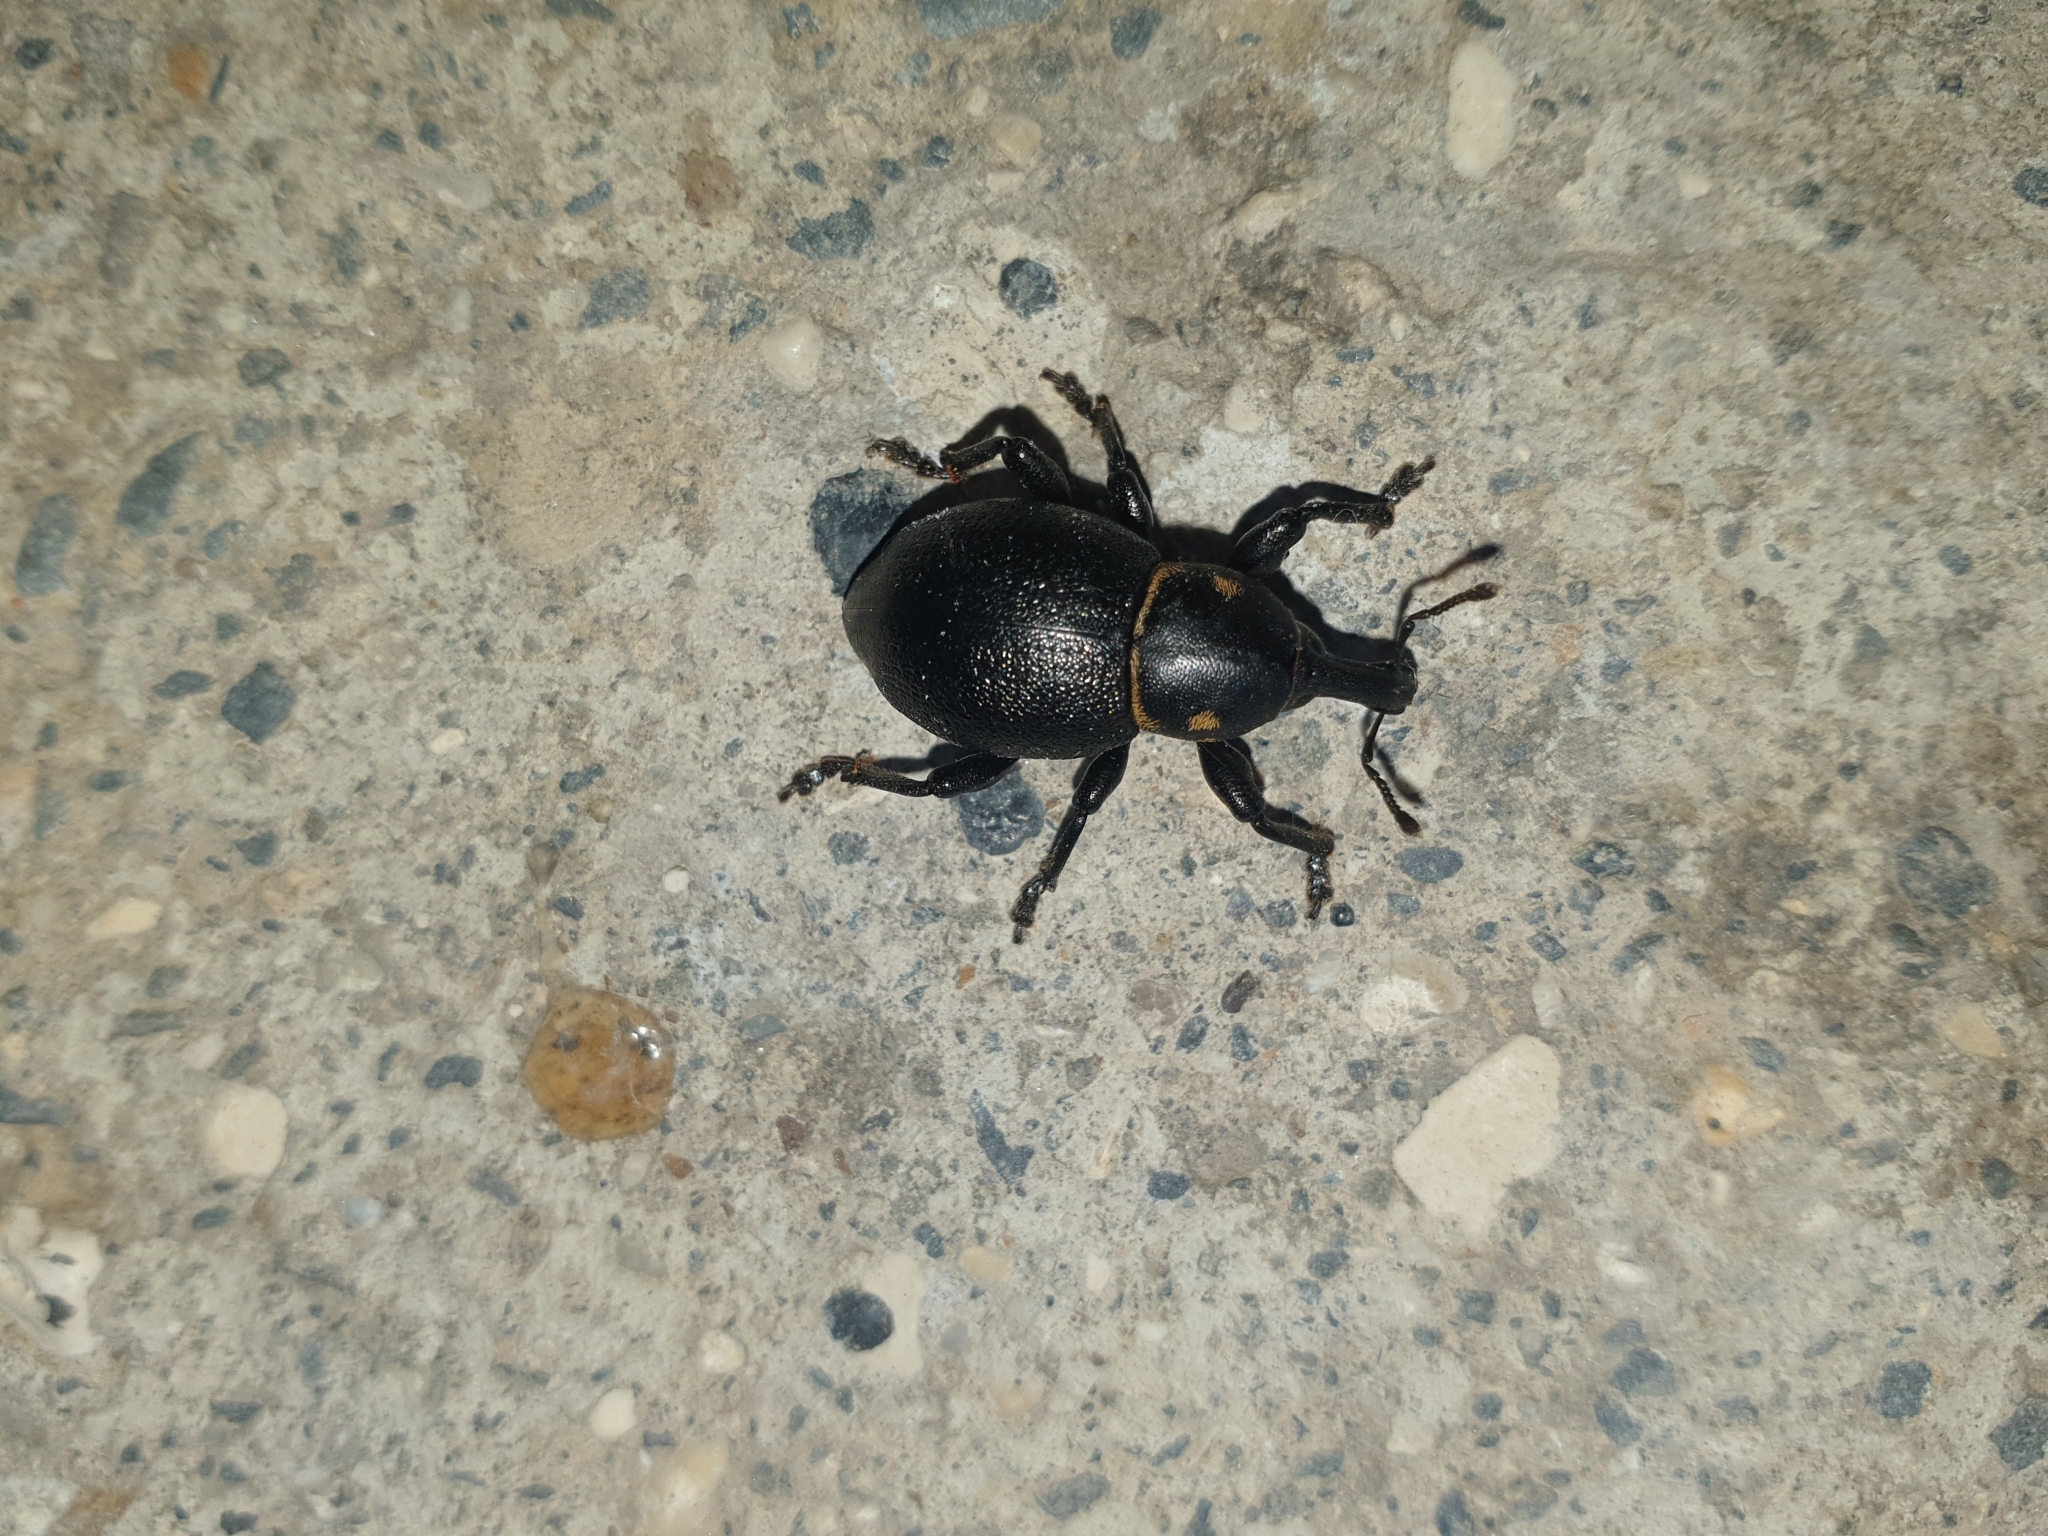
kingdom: Animalia
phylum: Arthropoda
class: Insecta
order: Coleoptera
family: Curculionidae
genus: Liparus
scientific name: Liparus coronatus
